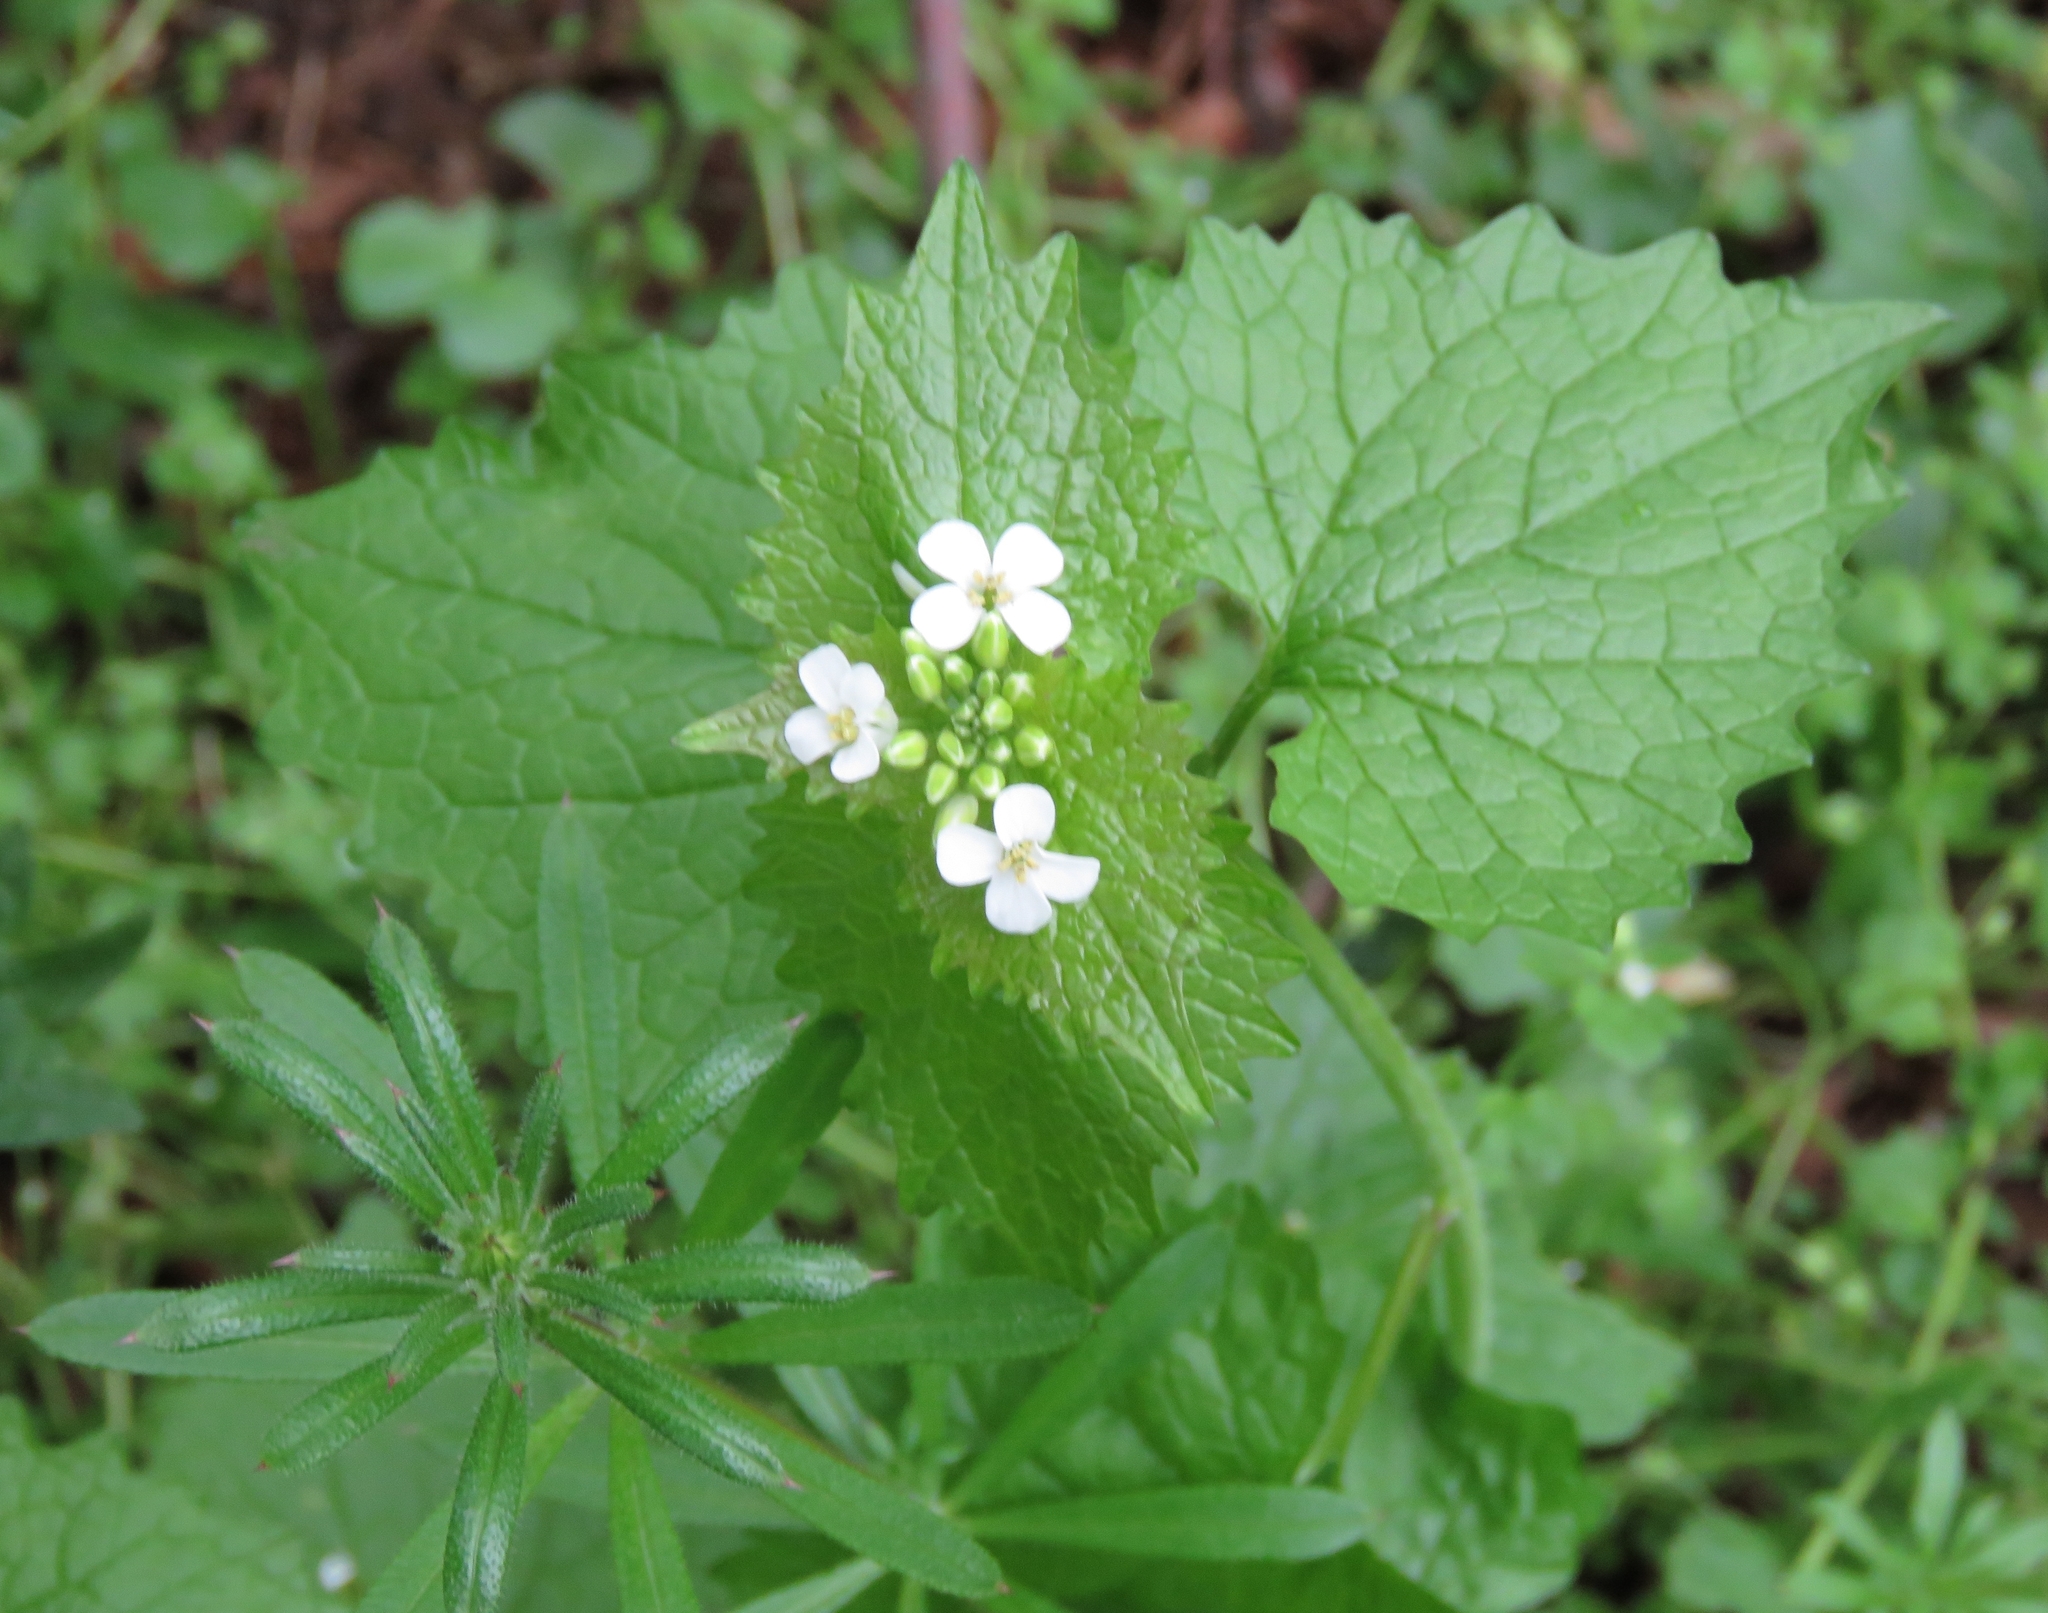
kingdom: Plantae
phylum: Tracheophyta
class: Magnoliopsida
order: Brassicales
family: Brassicaceae
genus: Alliaria
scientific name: Alliaria petiolata
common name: Garlic mustard
